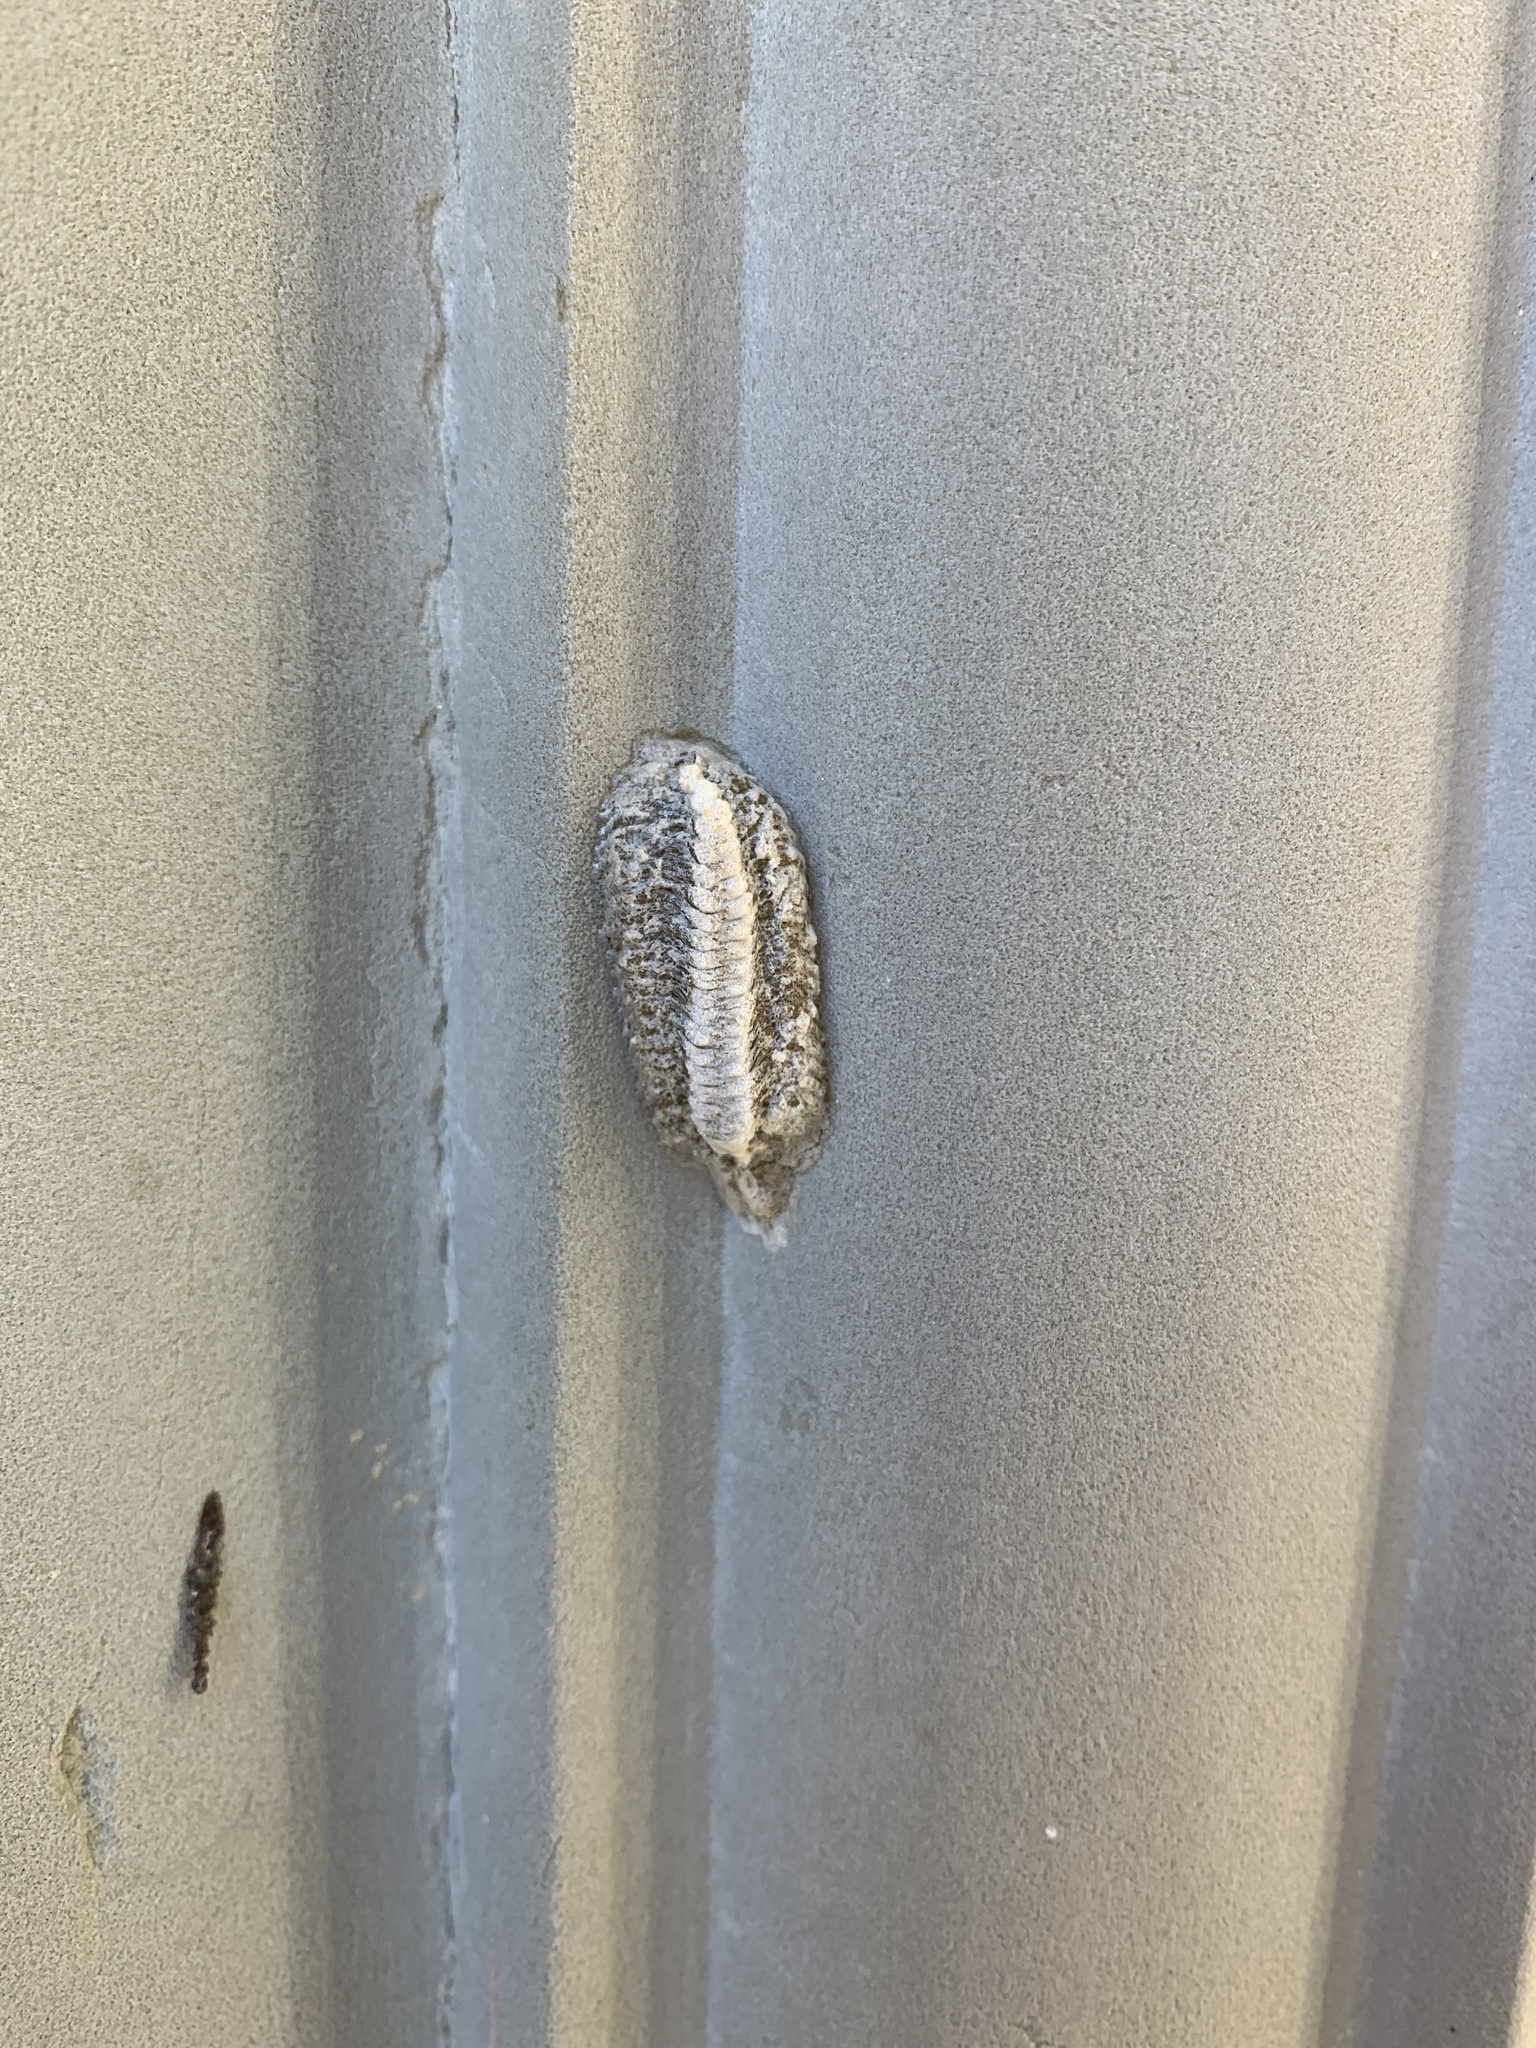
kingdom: Animalia
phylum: Arthropoda
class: Insecta
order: Mantodea
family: Mantidae
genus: Stagmomantis
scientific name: Stagmomantis carolina
